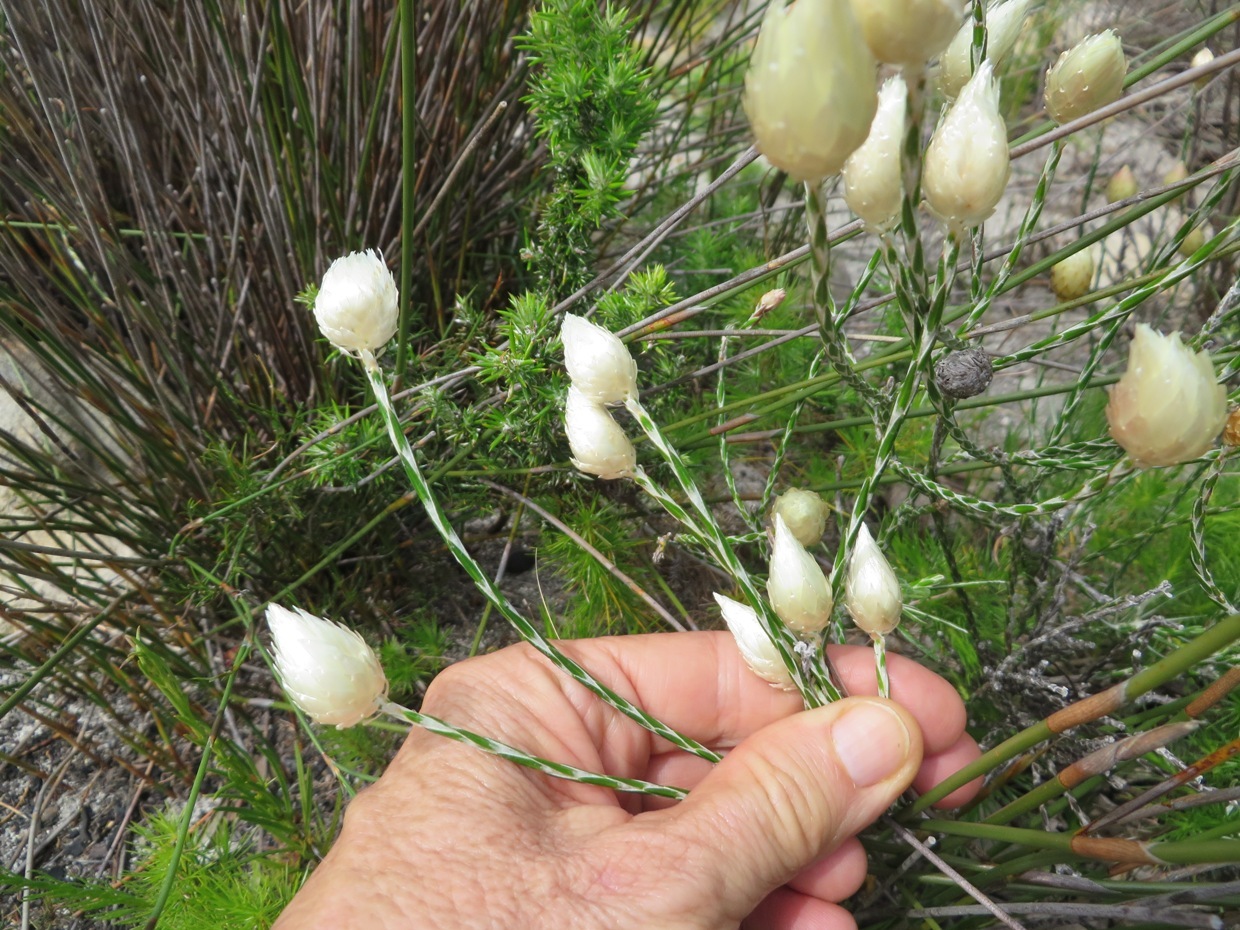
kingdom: Plantae
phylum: Tracheophyta
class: Magnoliopsida
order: Asterales
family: Asteraceae
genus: Edmondia
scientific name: Edmondia sesamoides
